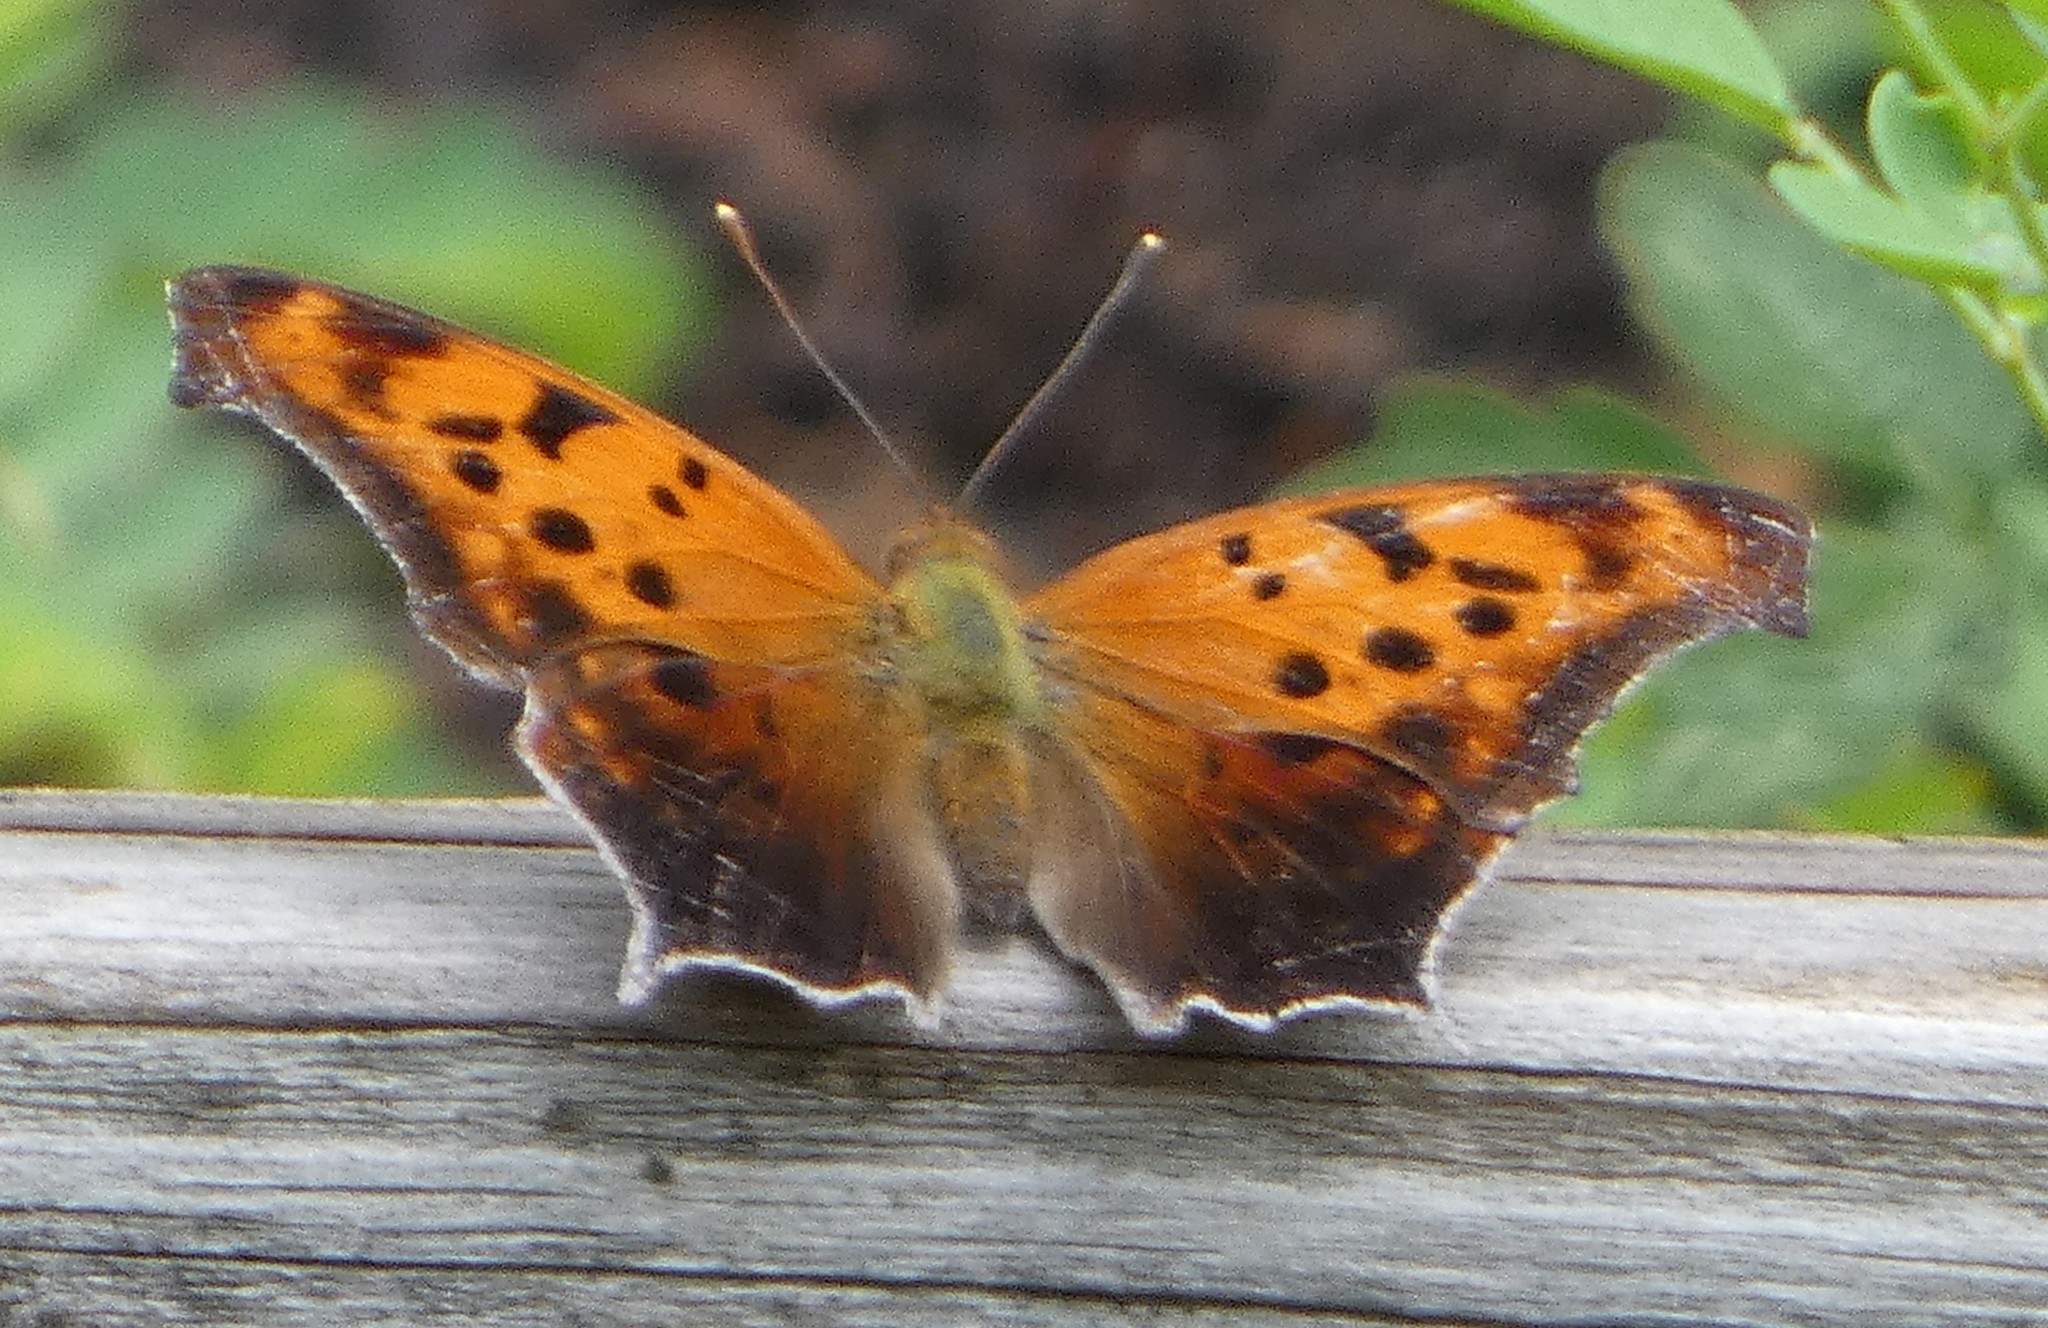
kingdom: Animalia
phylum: Arthropoda
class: Insecta
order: Lepidoptera
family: Nymphalidae
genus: Polygonia
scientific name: Polygonia interrogationis
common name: Question mark
